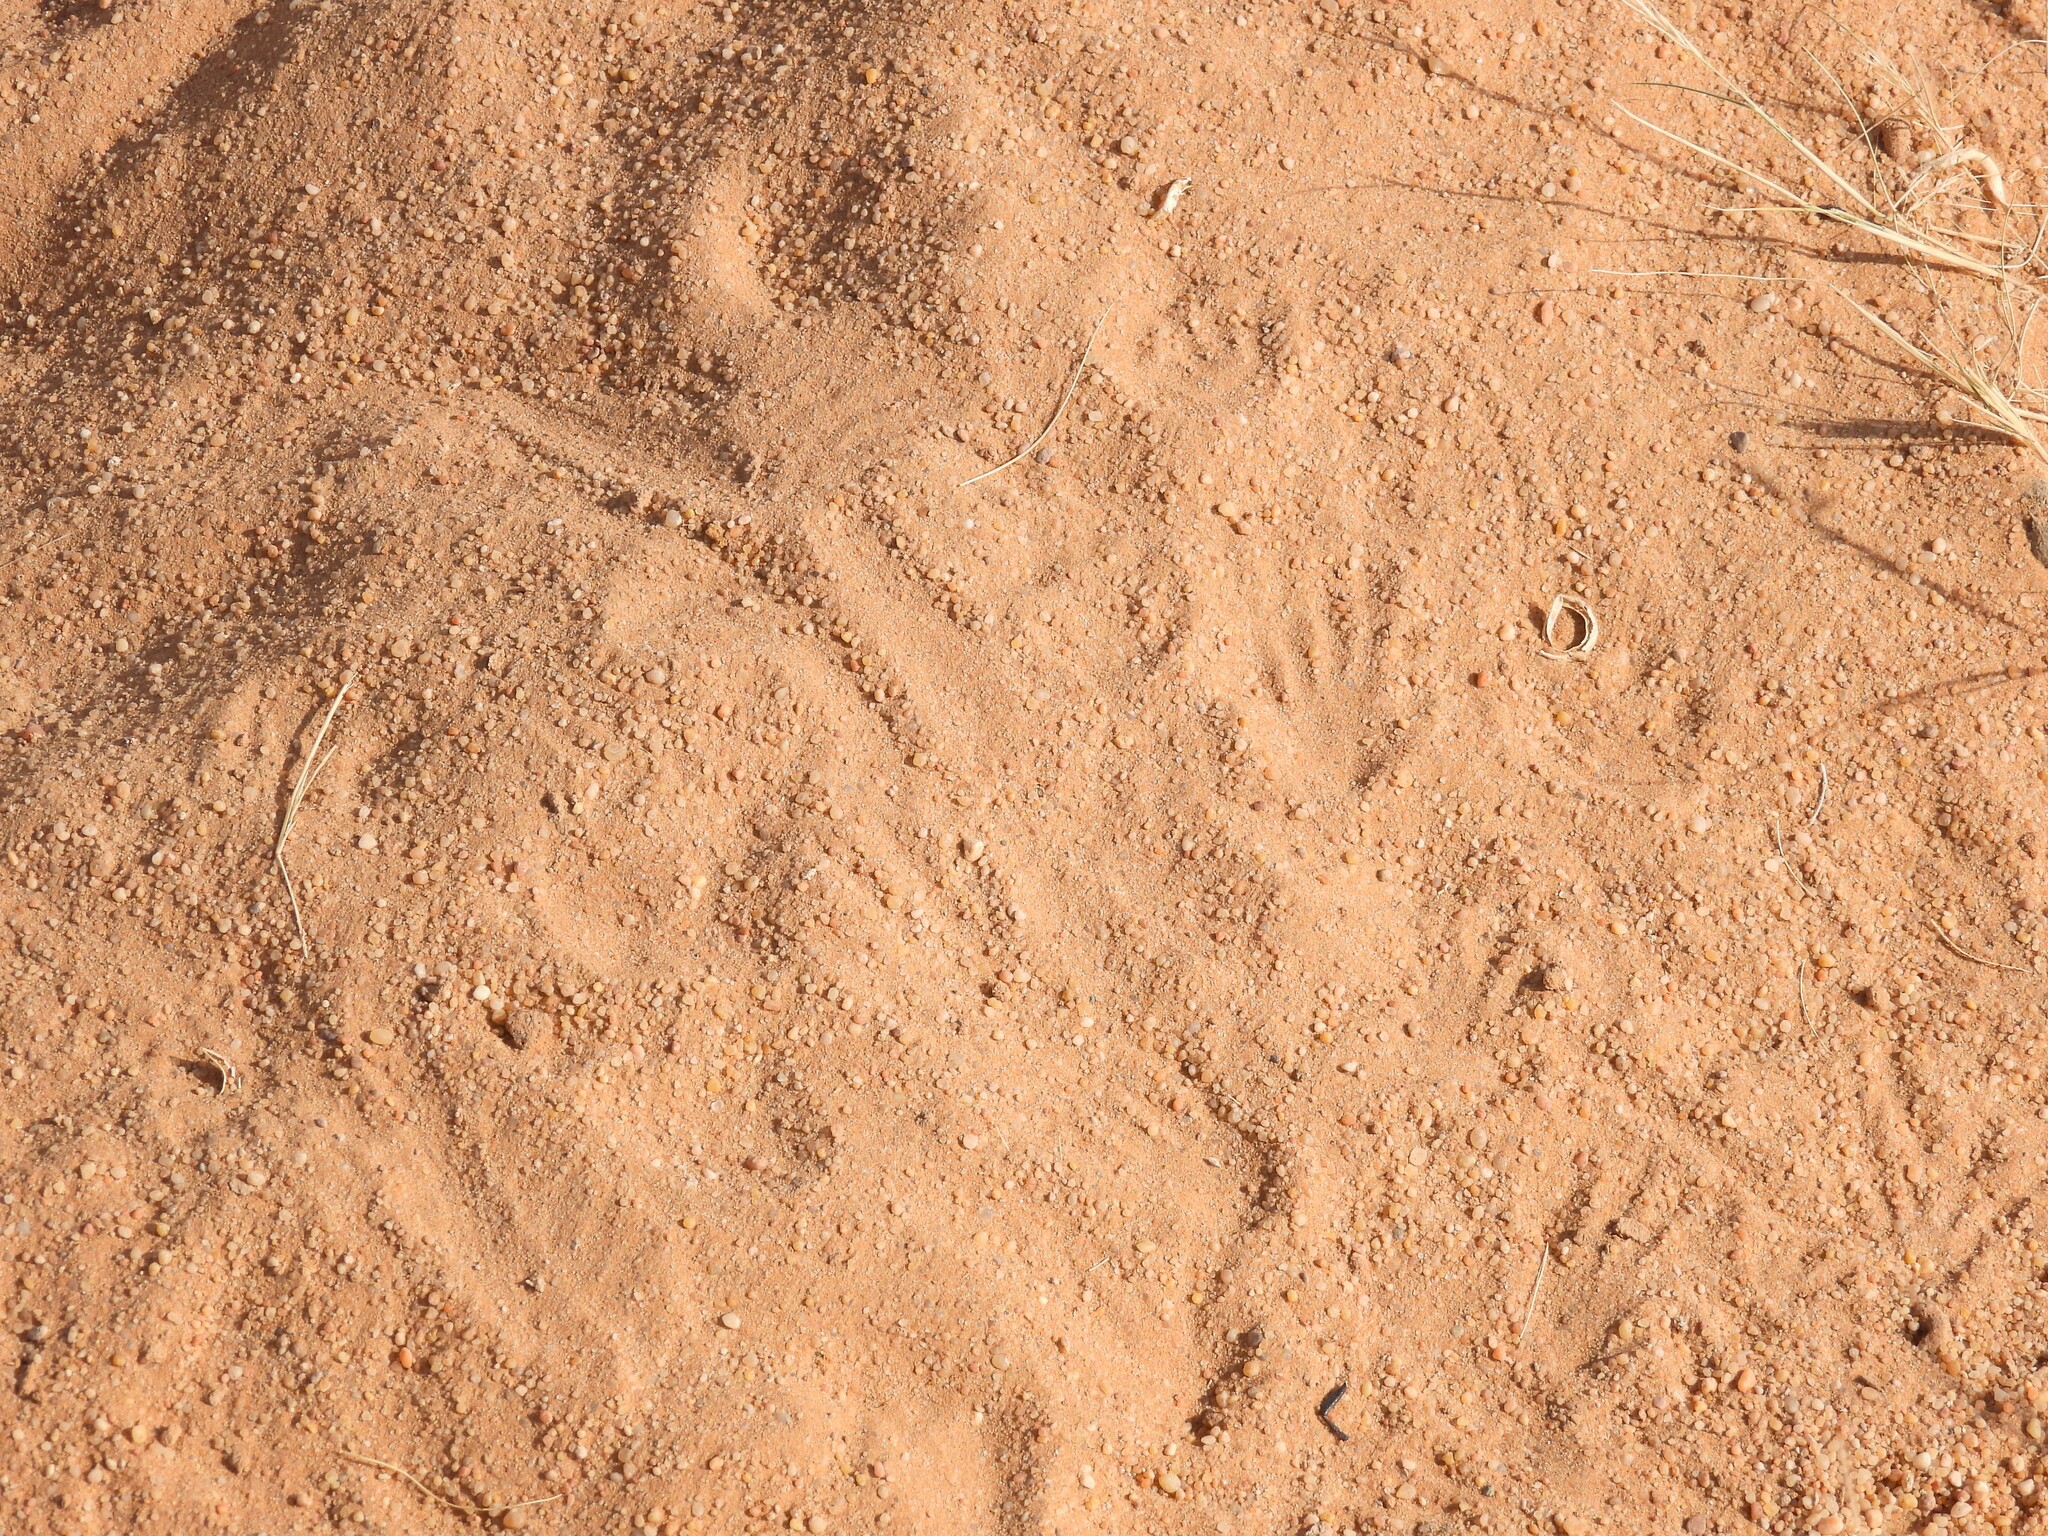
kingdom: Animalia
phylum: Chordata
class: Squamata
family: Agamidae
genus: Uromastyx
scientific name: Uromastyx aegyptia
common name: Egyptian mastigure
